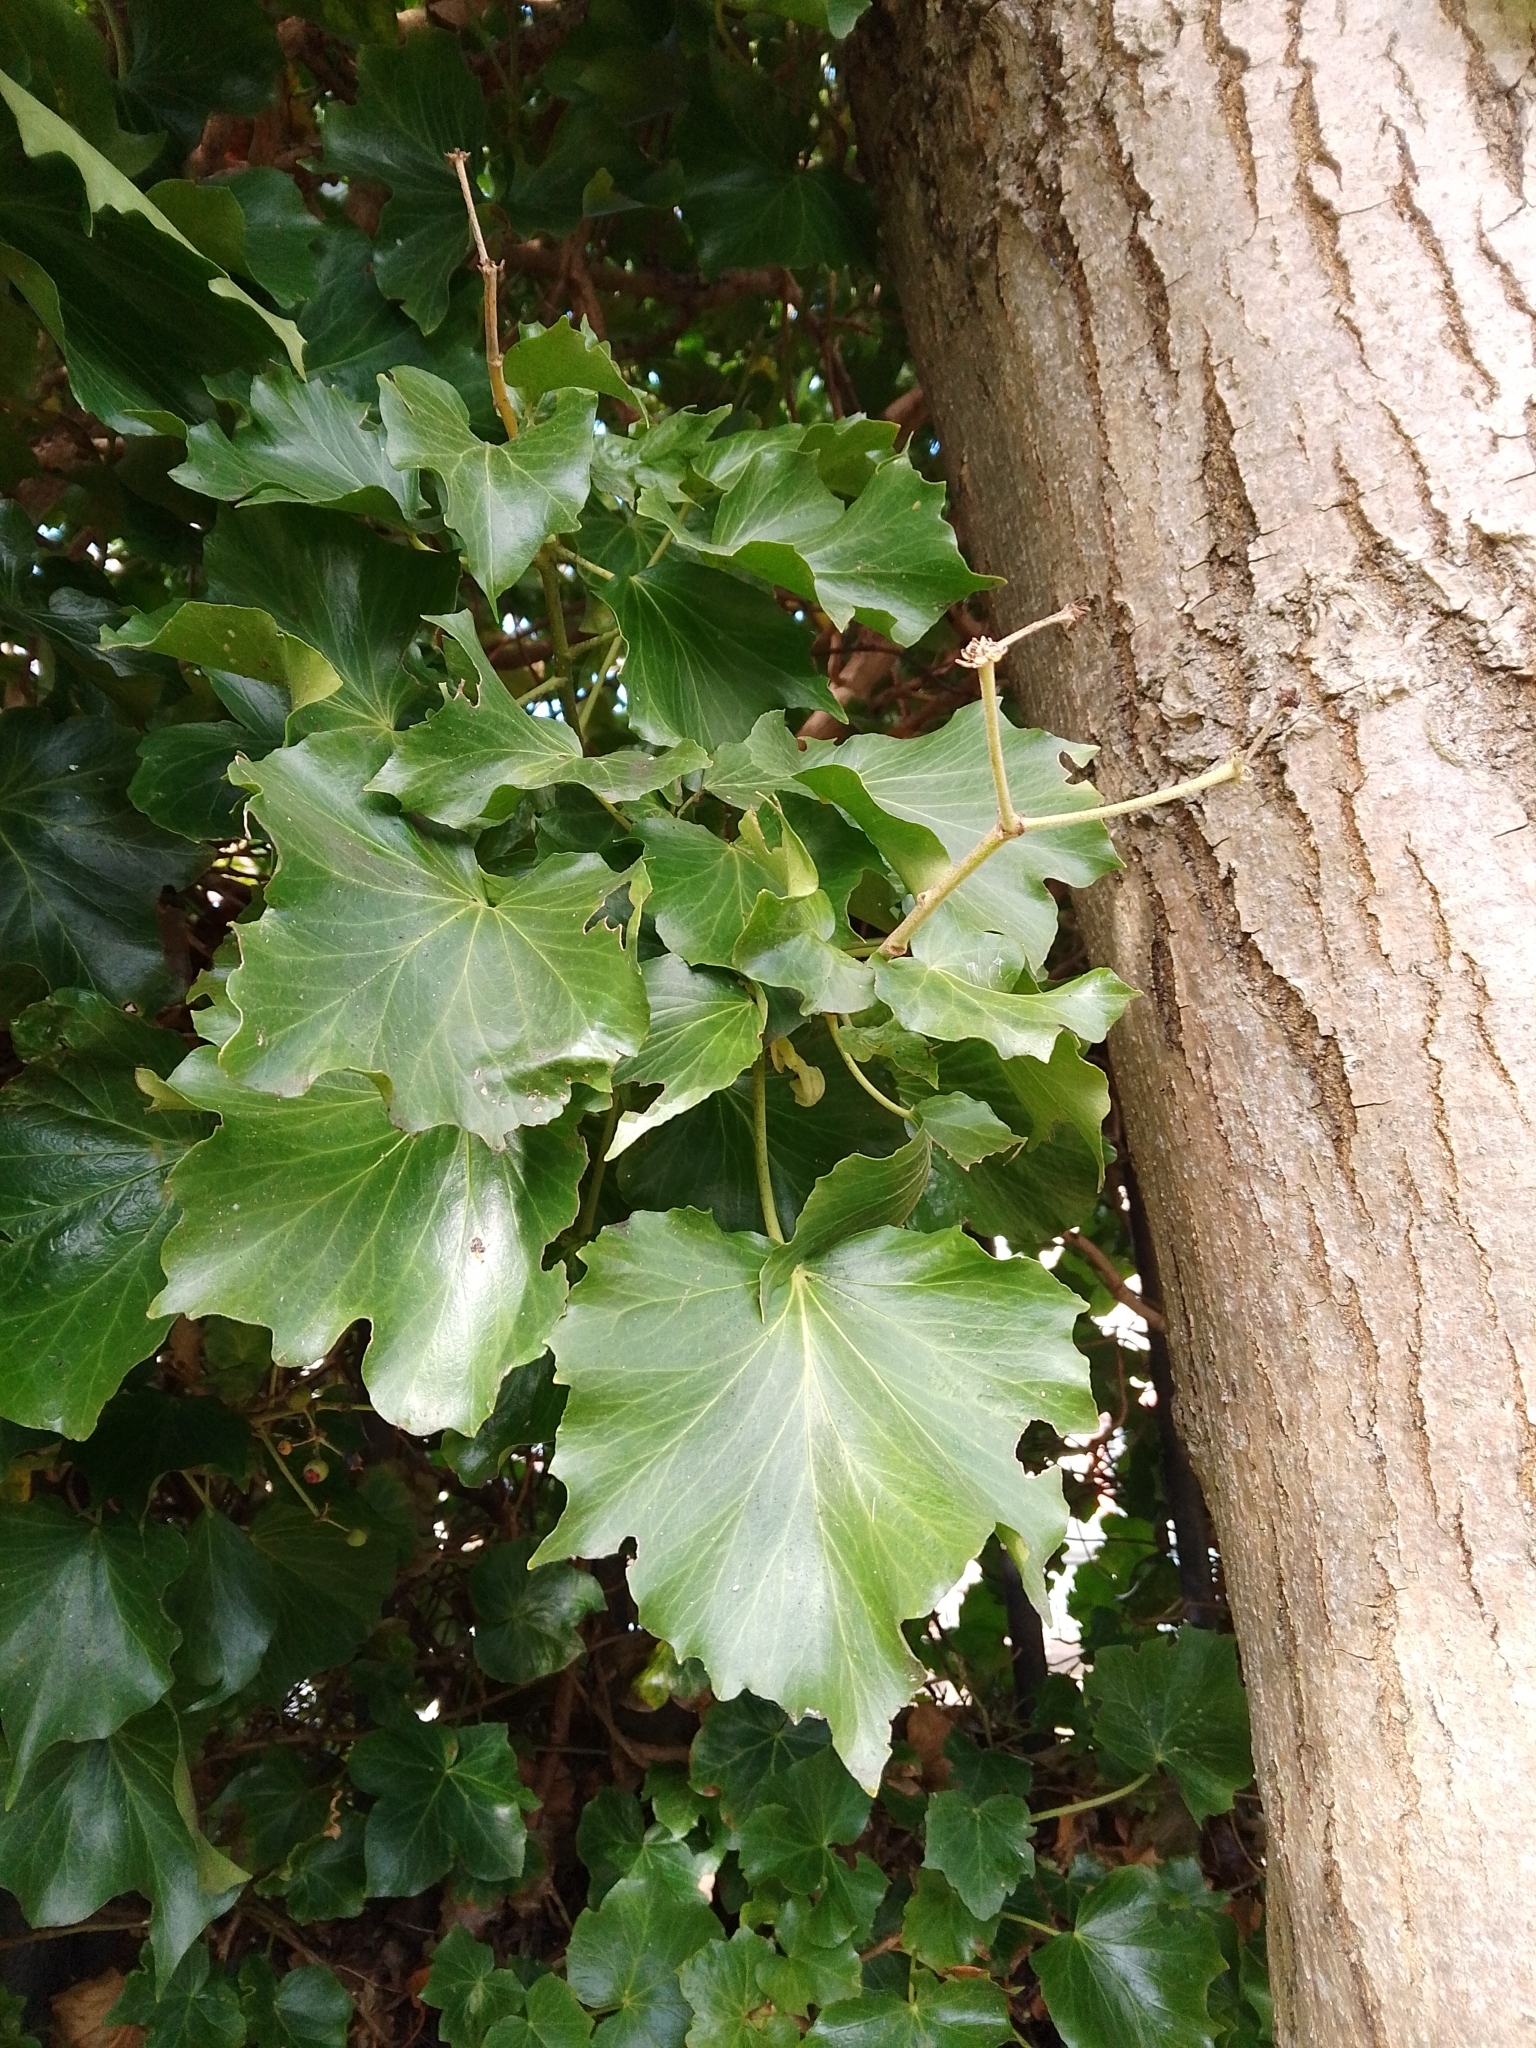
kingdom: Plantae
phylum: Tracheophyta
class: Magnoliopsida
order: Apiales
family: Araliaceae
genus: Hedera
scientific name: Hedera helix
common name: Ivy
